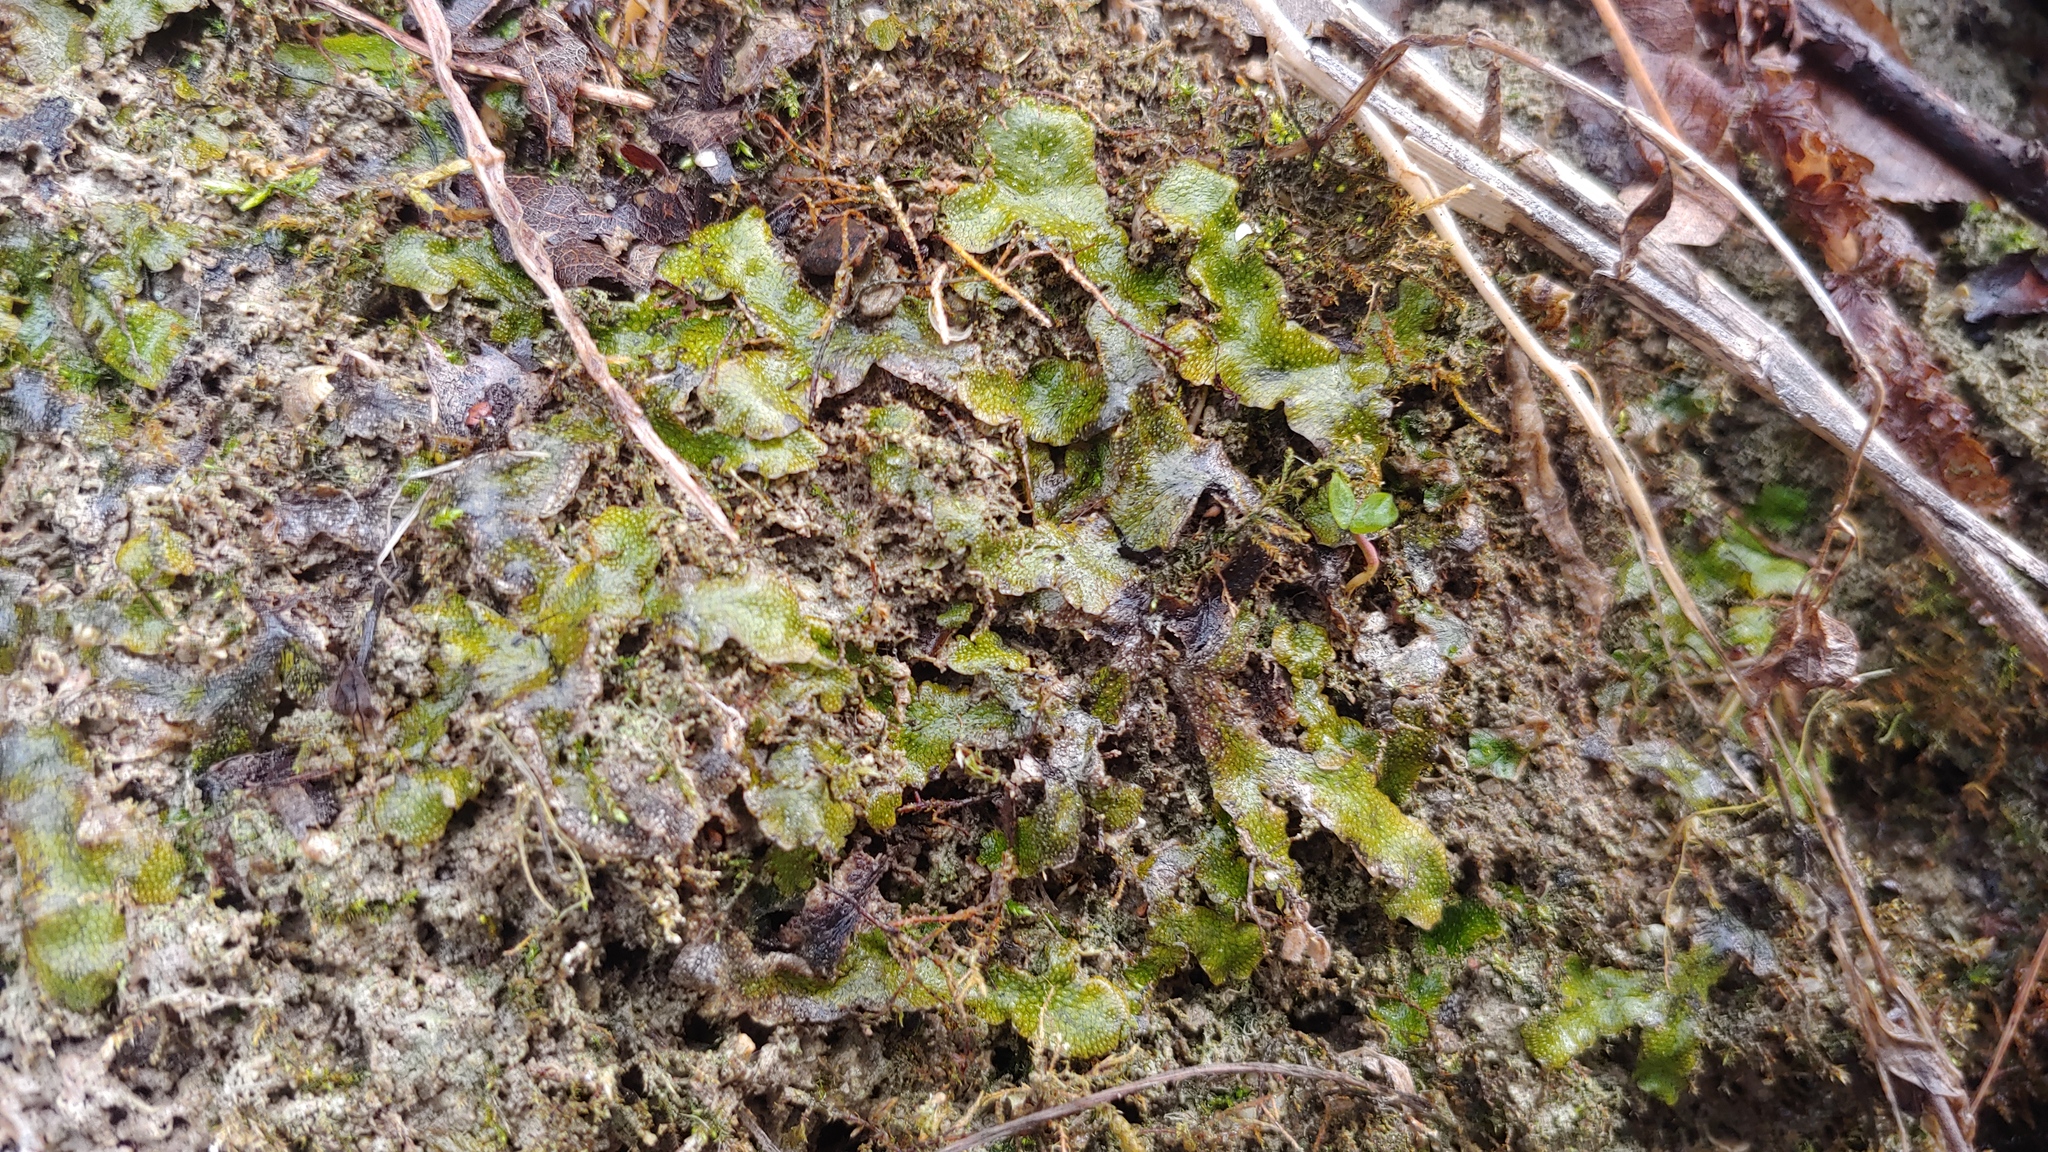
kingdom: Plantae
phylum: Marchantiophyta
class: Marchantiopsida
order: Marchantiales
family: Conocephalaceae
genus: Conocephalum
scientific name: Conocephalum salebrosum
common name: Cat-tongue liverwort
